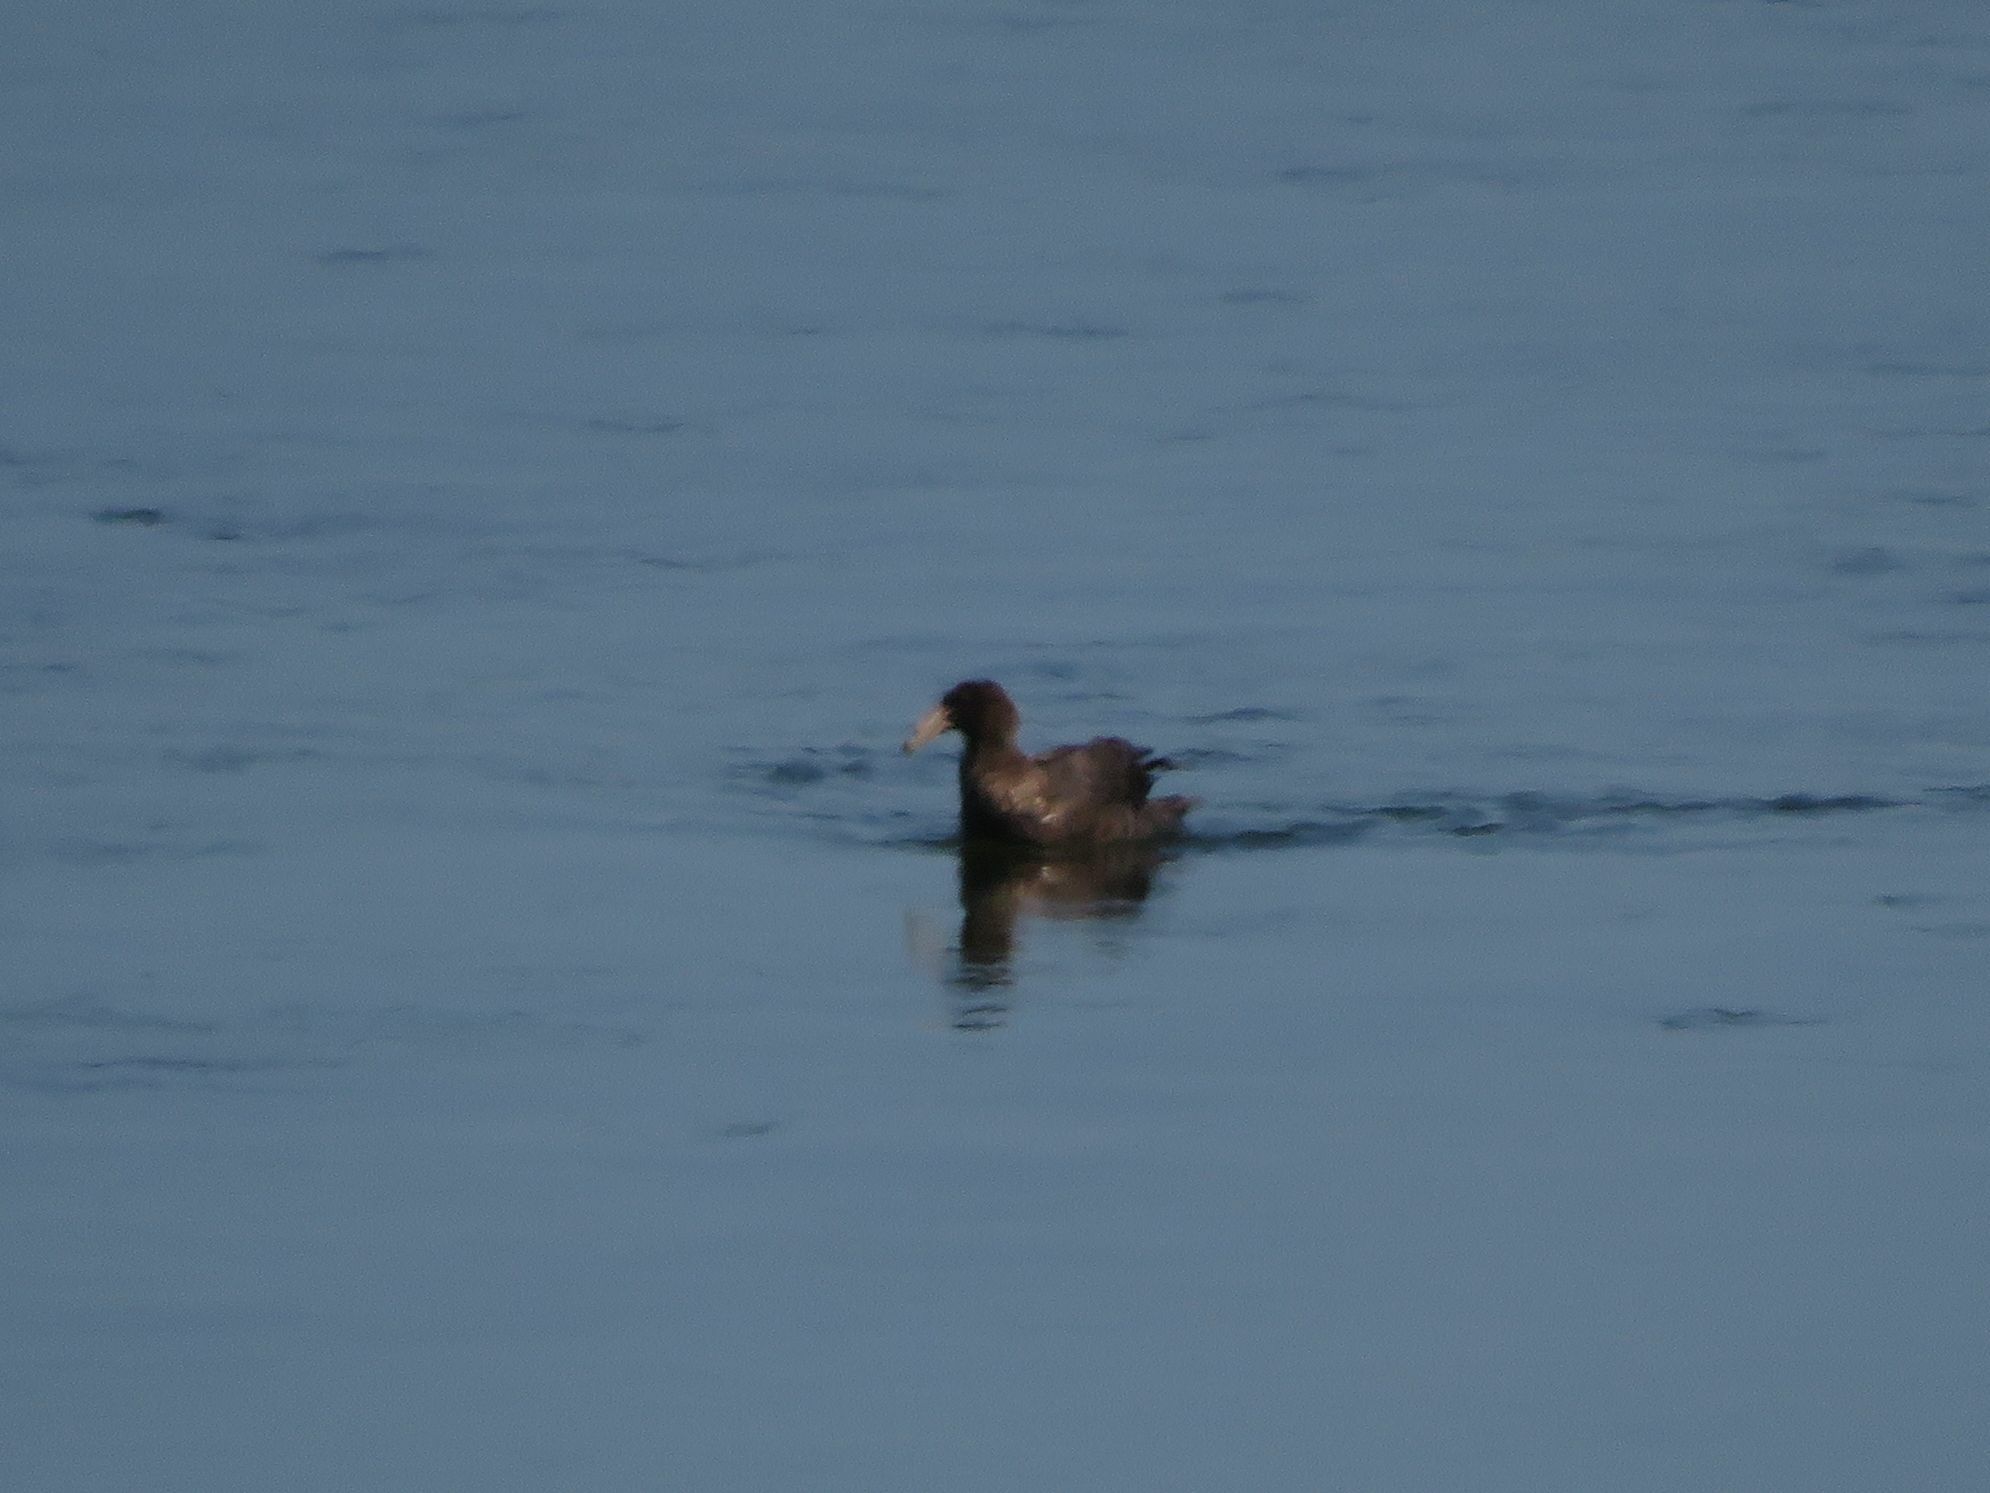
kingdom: Animalia
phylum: Chordata
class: Aves
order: Procellariiformes
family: Procellariidae
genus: Macronectes
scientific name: Macronectes giganteus
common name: Southern giant petrel
